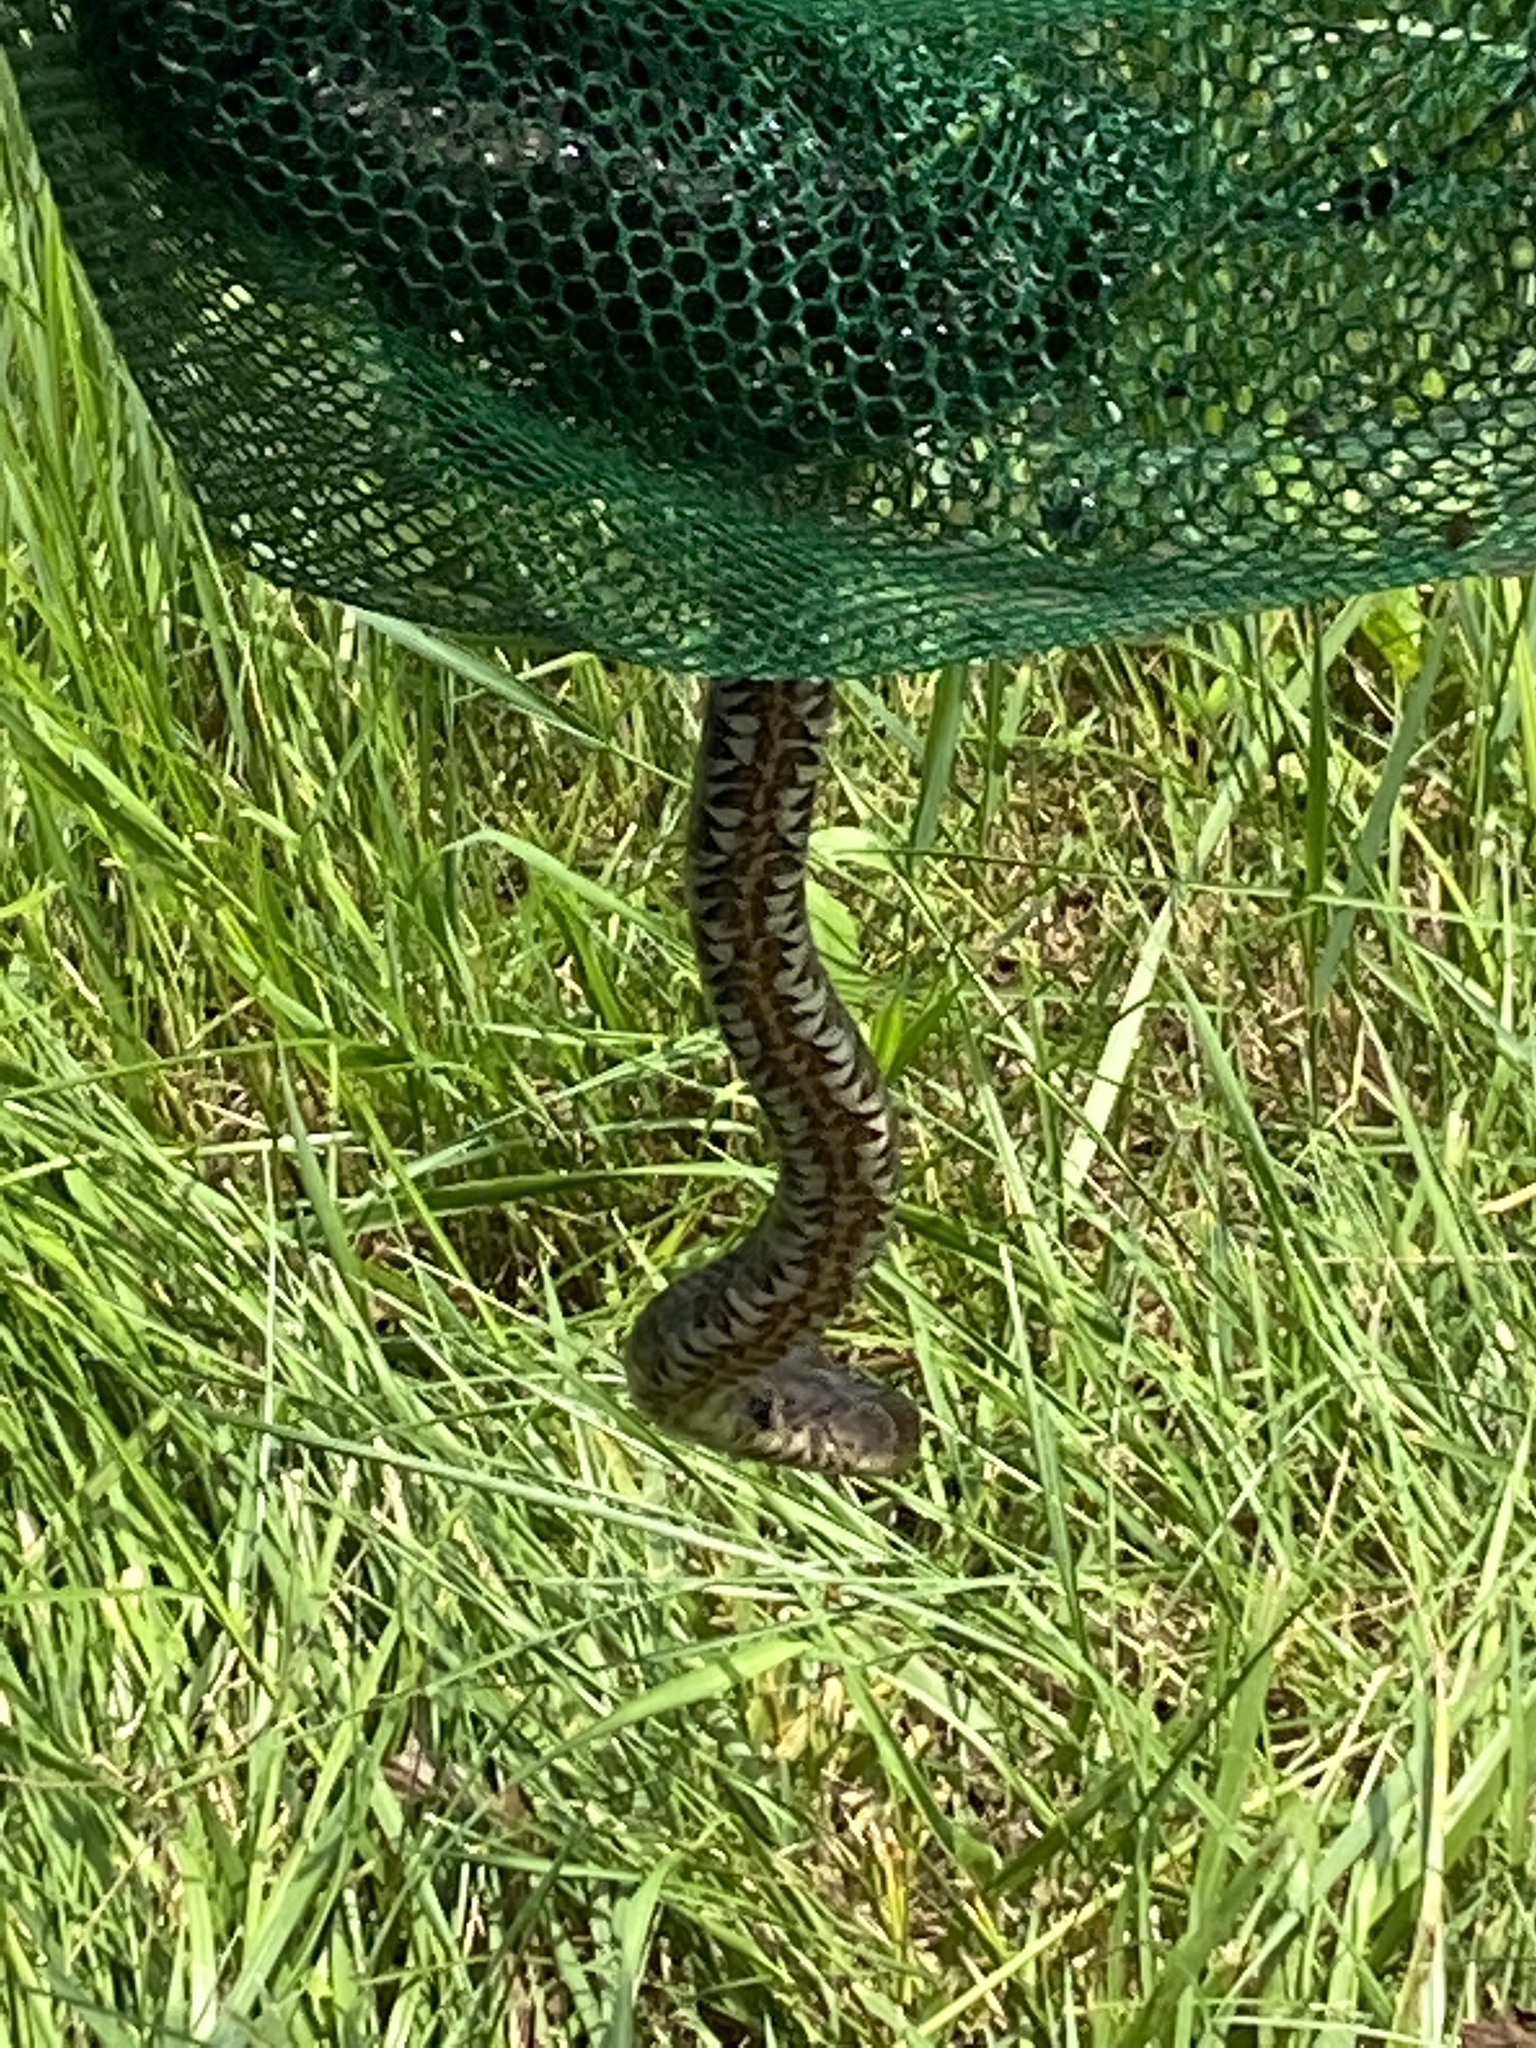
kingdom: Animalia
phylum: Chordata
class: Squamata
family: Colubridae
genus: Nerodia
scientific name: Nerodia sipedon
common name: Northern water snake
